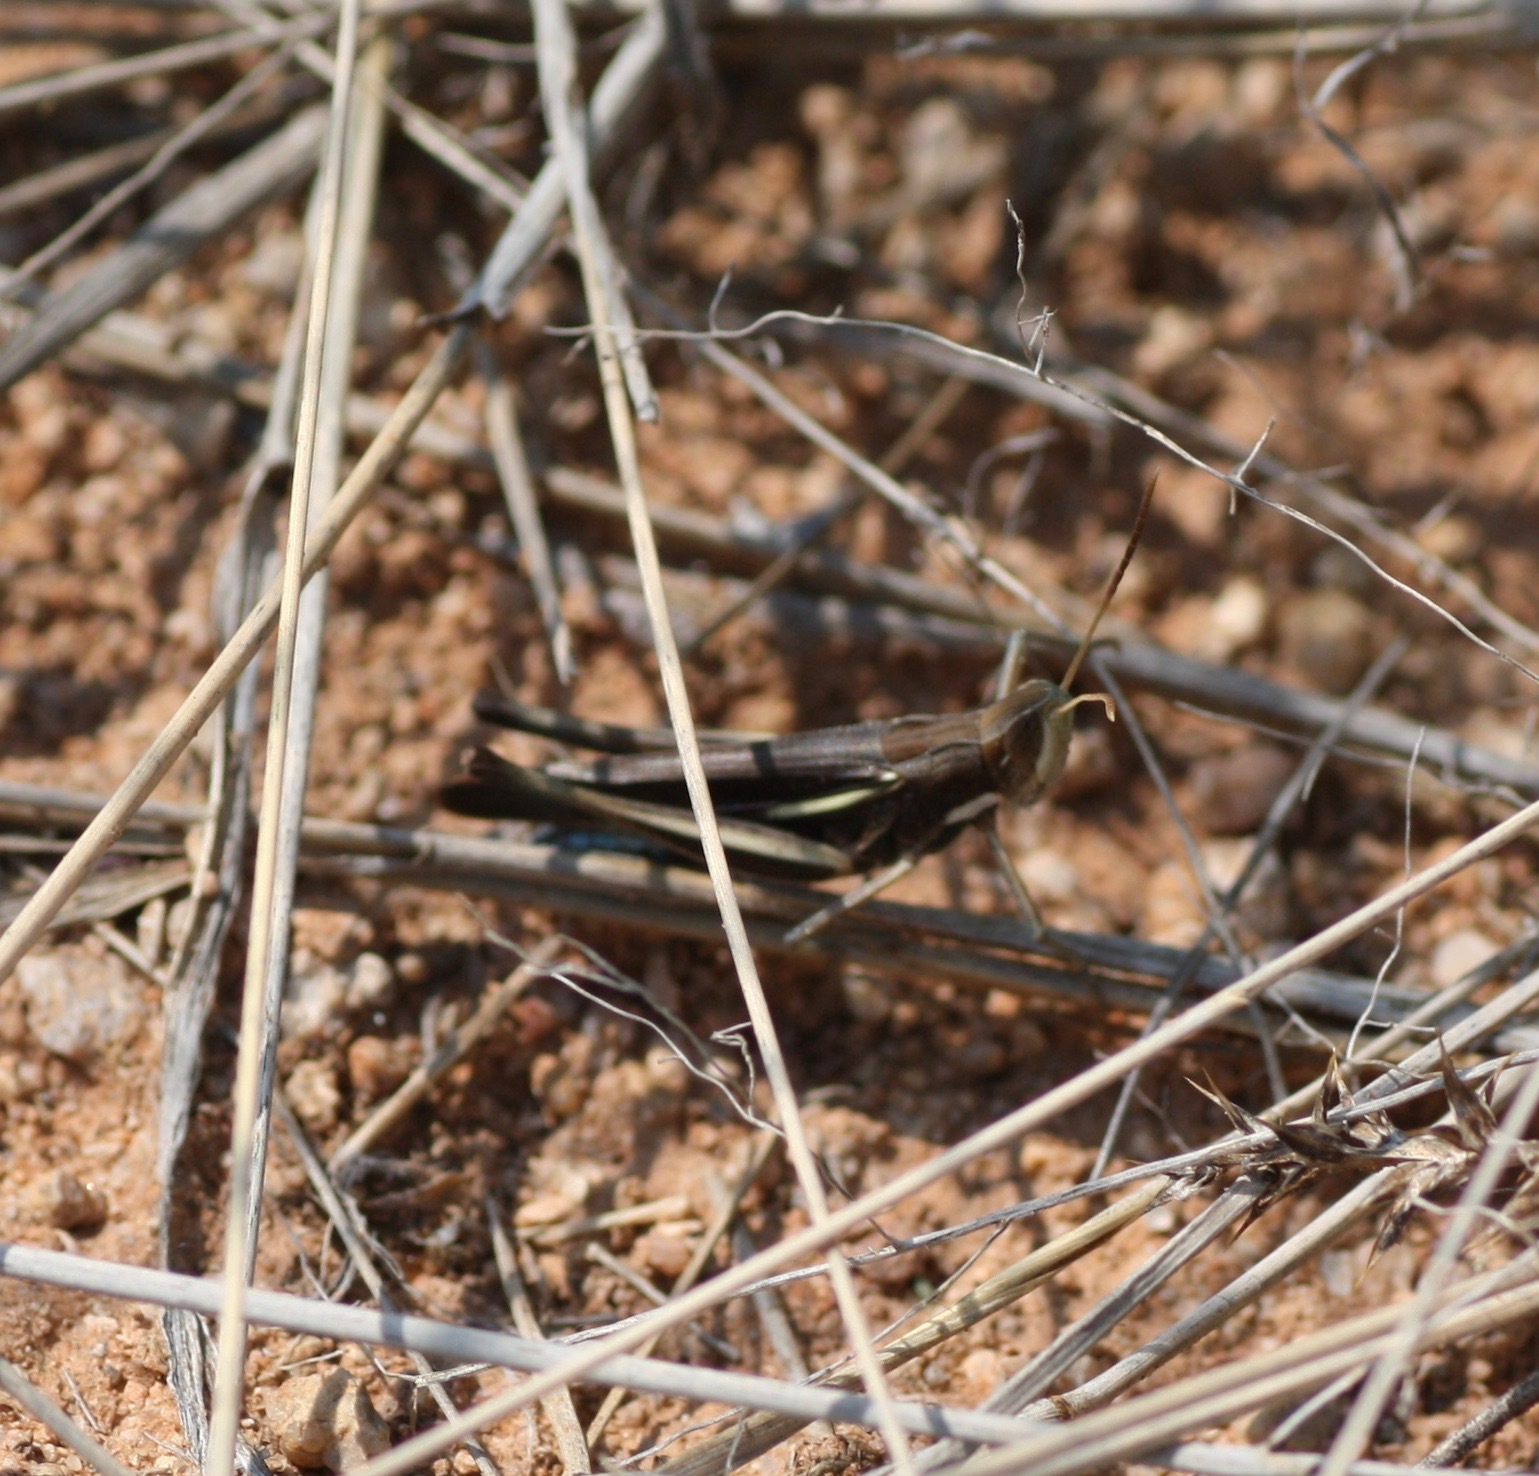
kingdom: Animalia
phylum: Arthropoda
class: Insecta
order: Orthoptera
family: Acrididae
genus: Syrbula
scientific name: Syrbula montezuma
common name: Montezuma's grasshopper
